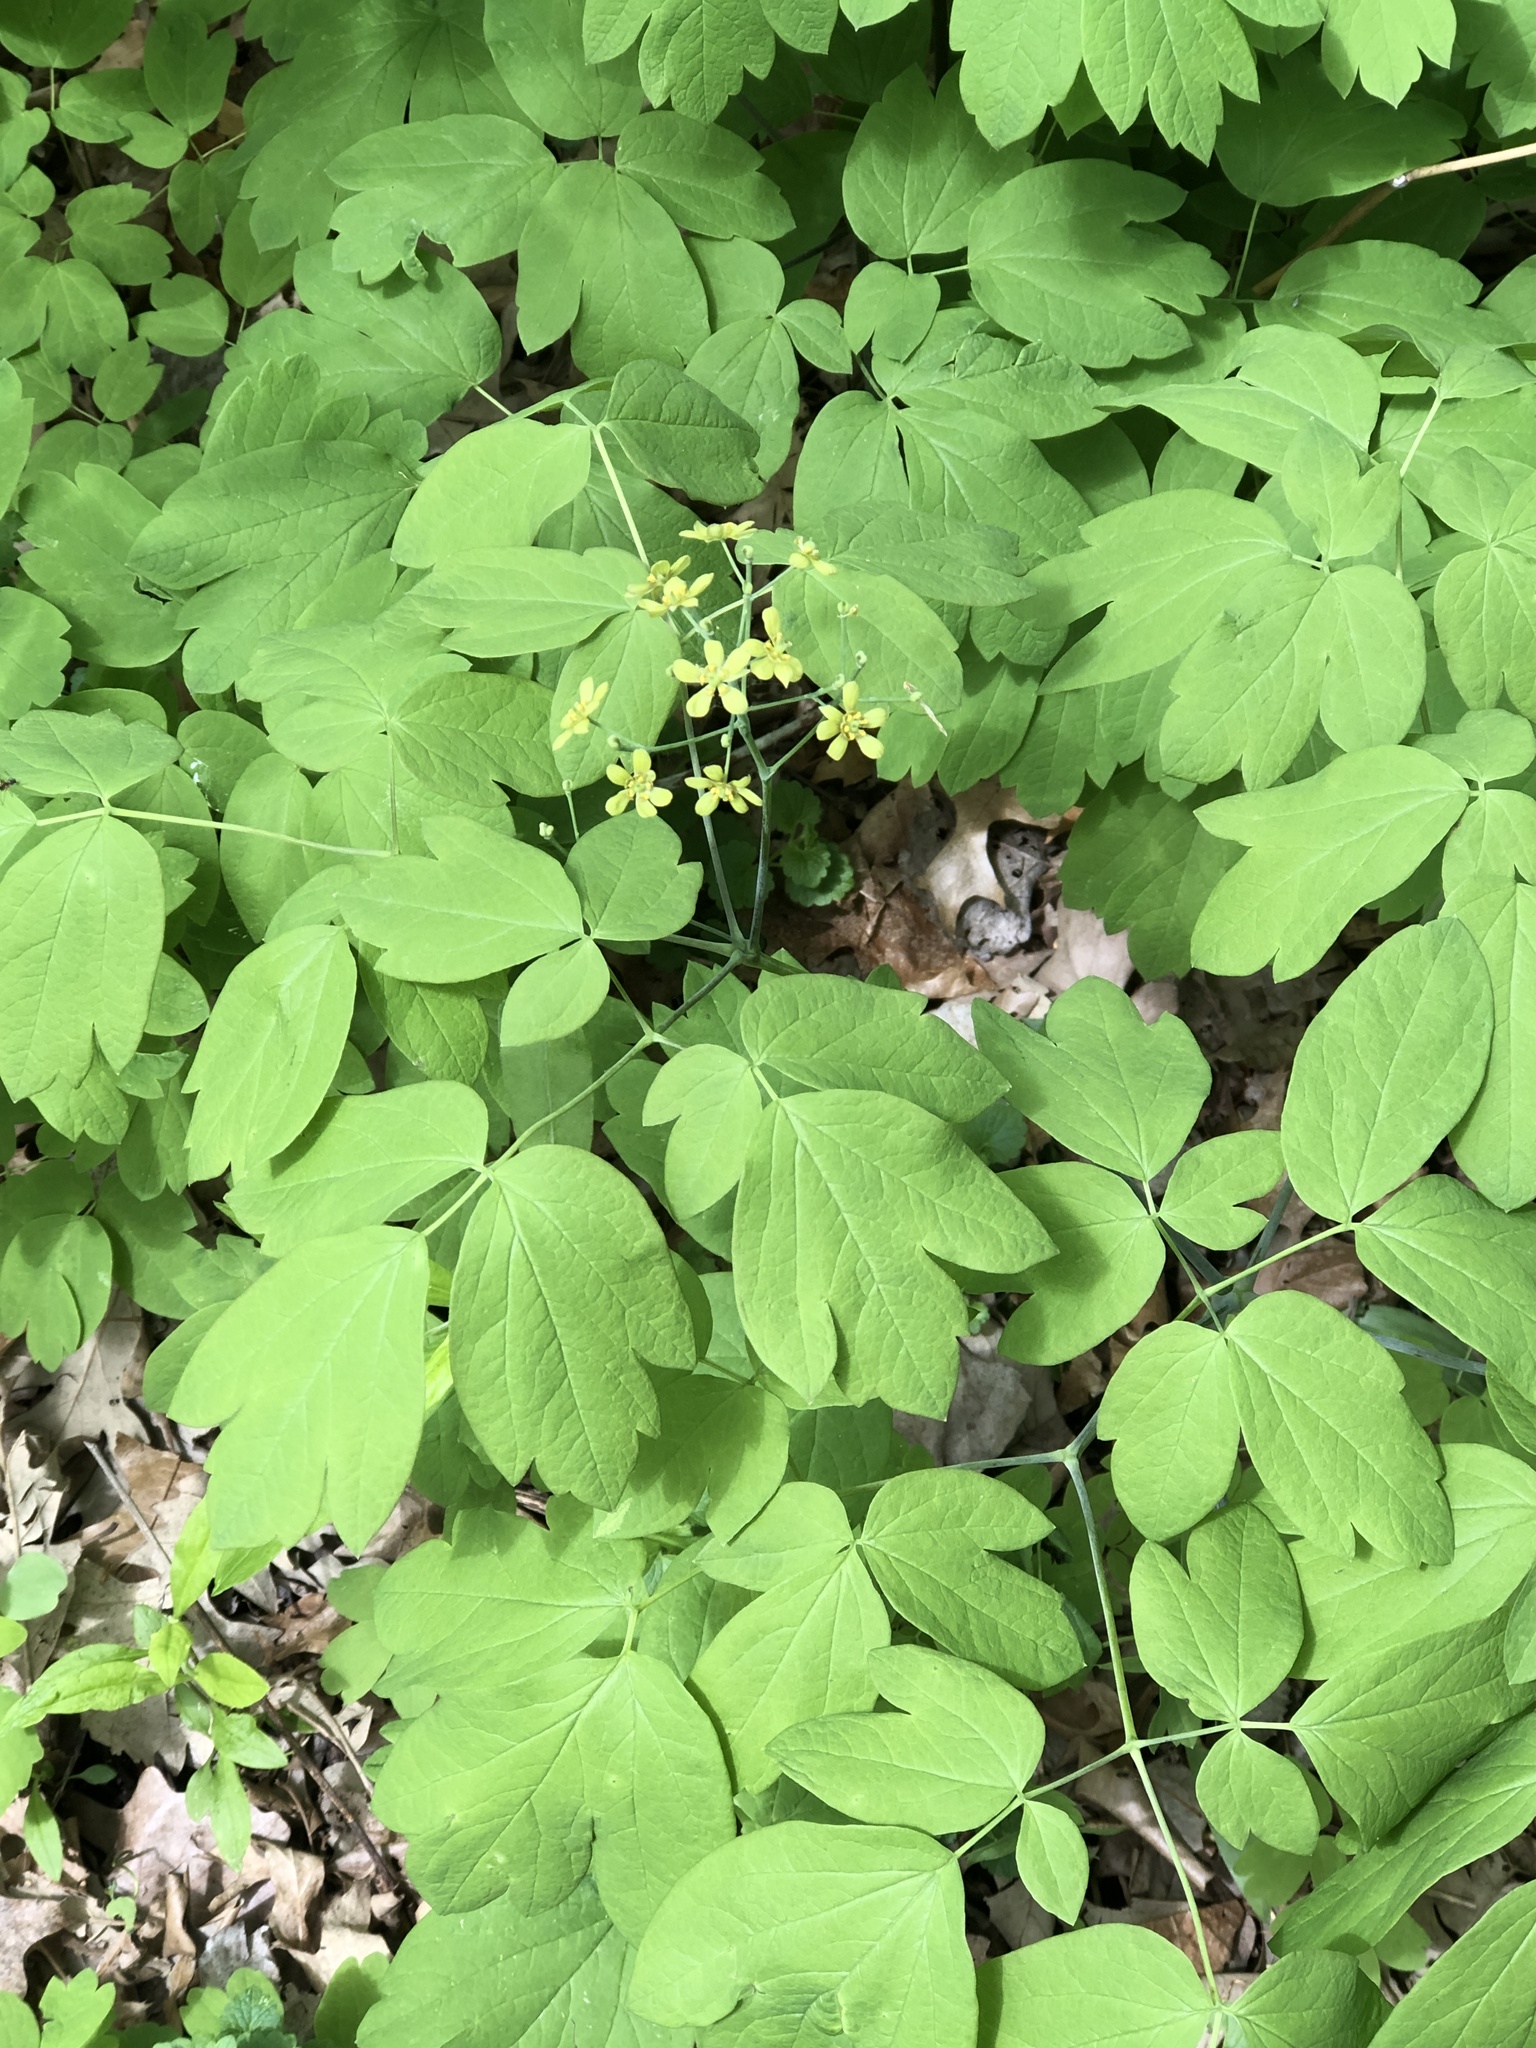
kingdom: Plantae
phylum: Tracheophyta
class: Magnoliopsida
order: Ranunculales
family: Berberidaceae
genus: Caulophyllum
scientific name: Caulophyllum thalictroides
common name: Blue cohosh
